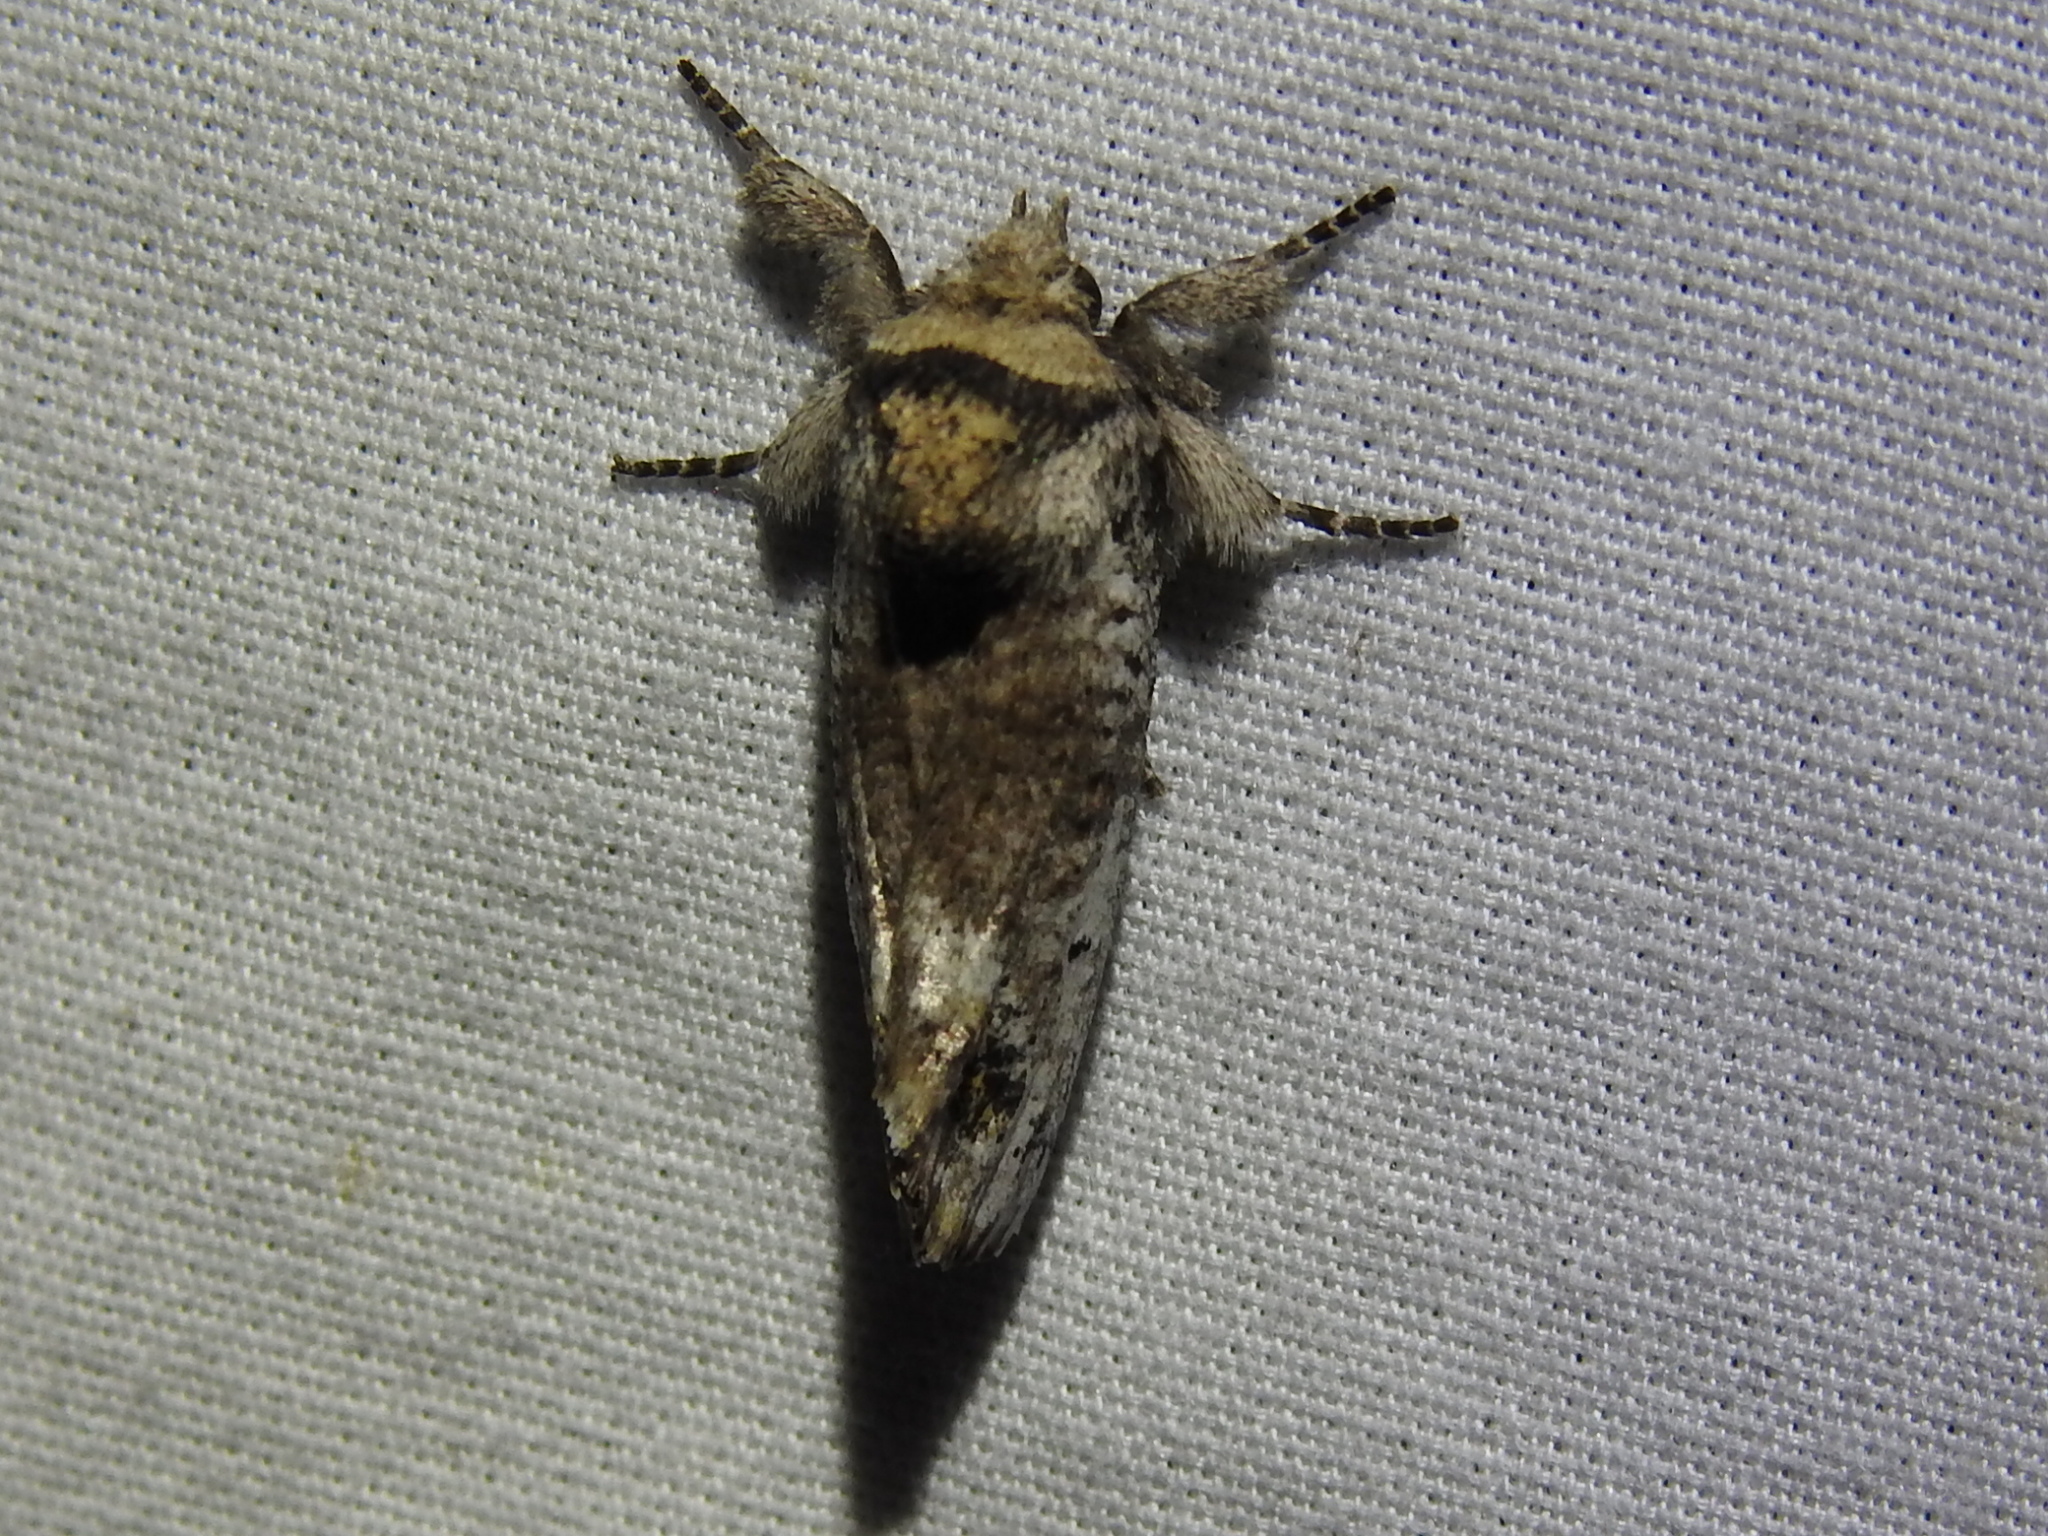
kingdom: Animalia
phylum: Arthropoda
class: Insecta
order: Lepidoptera
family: Erebidae
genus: Aon
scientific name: Aon noctuiformis
